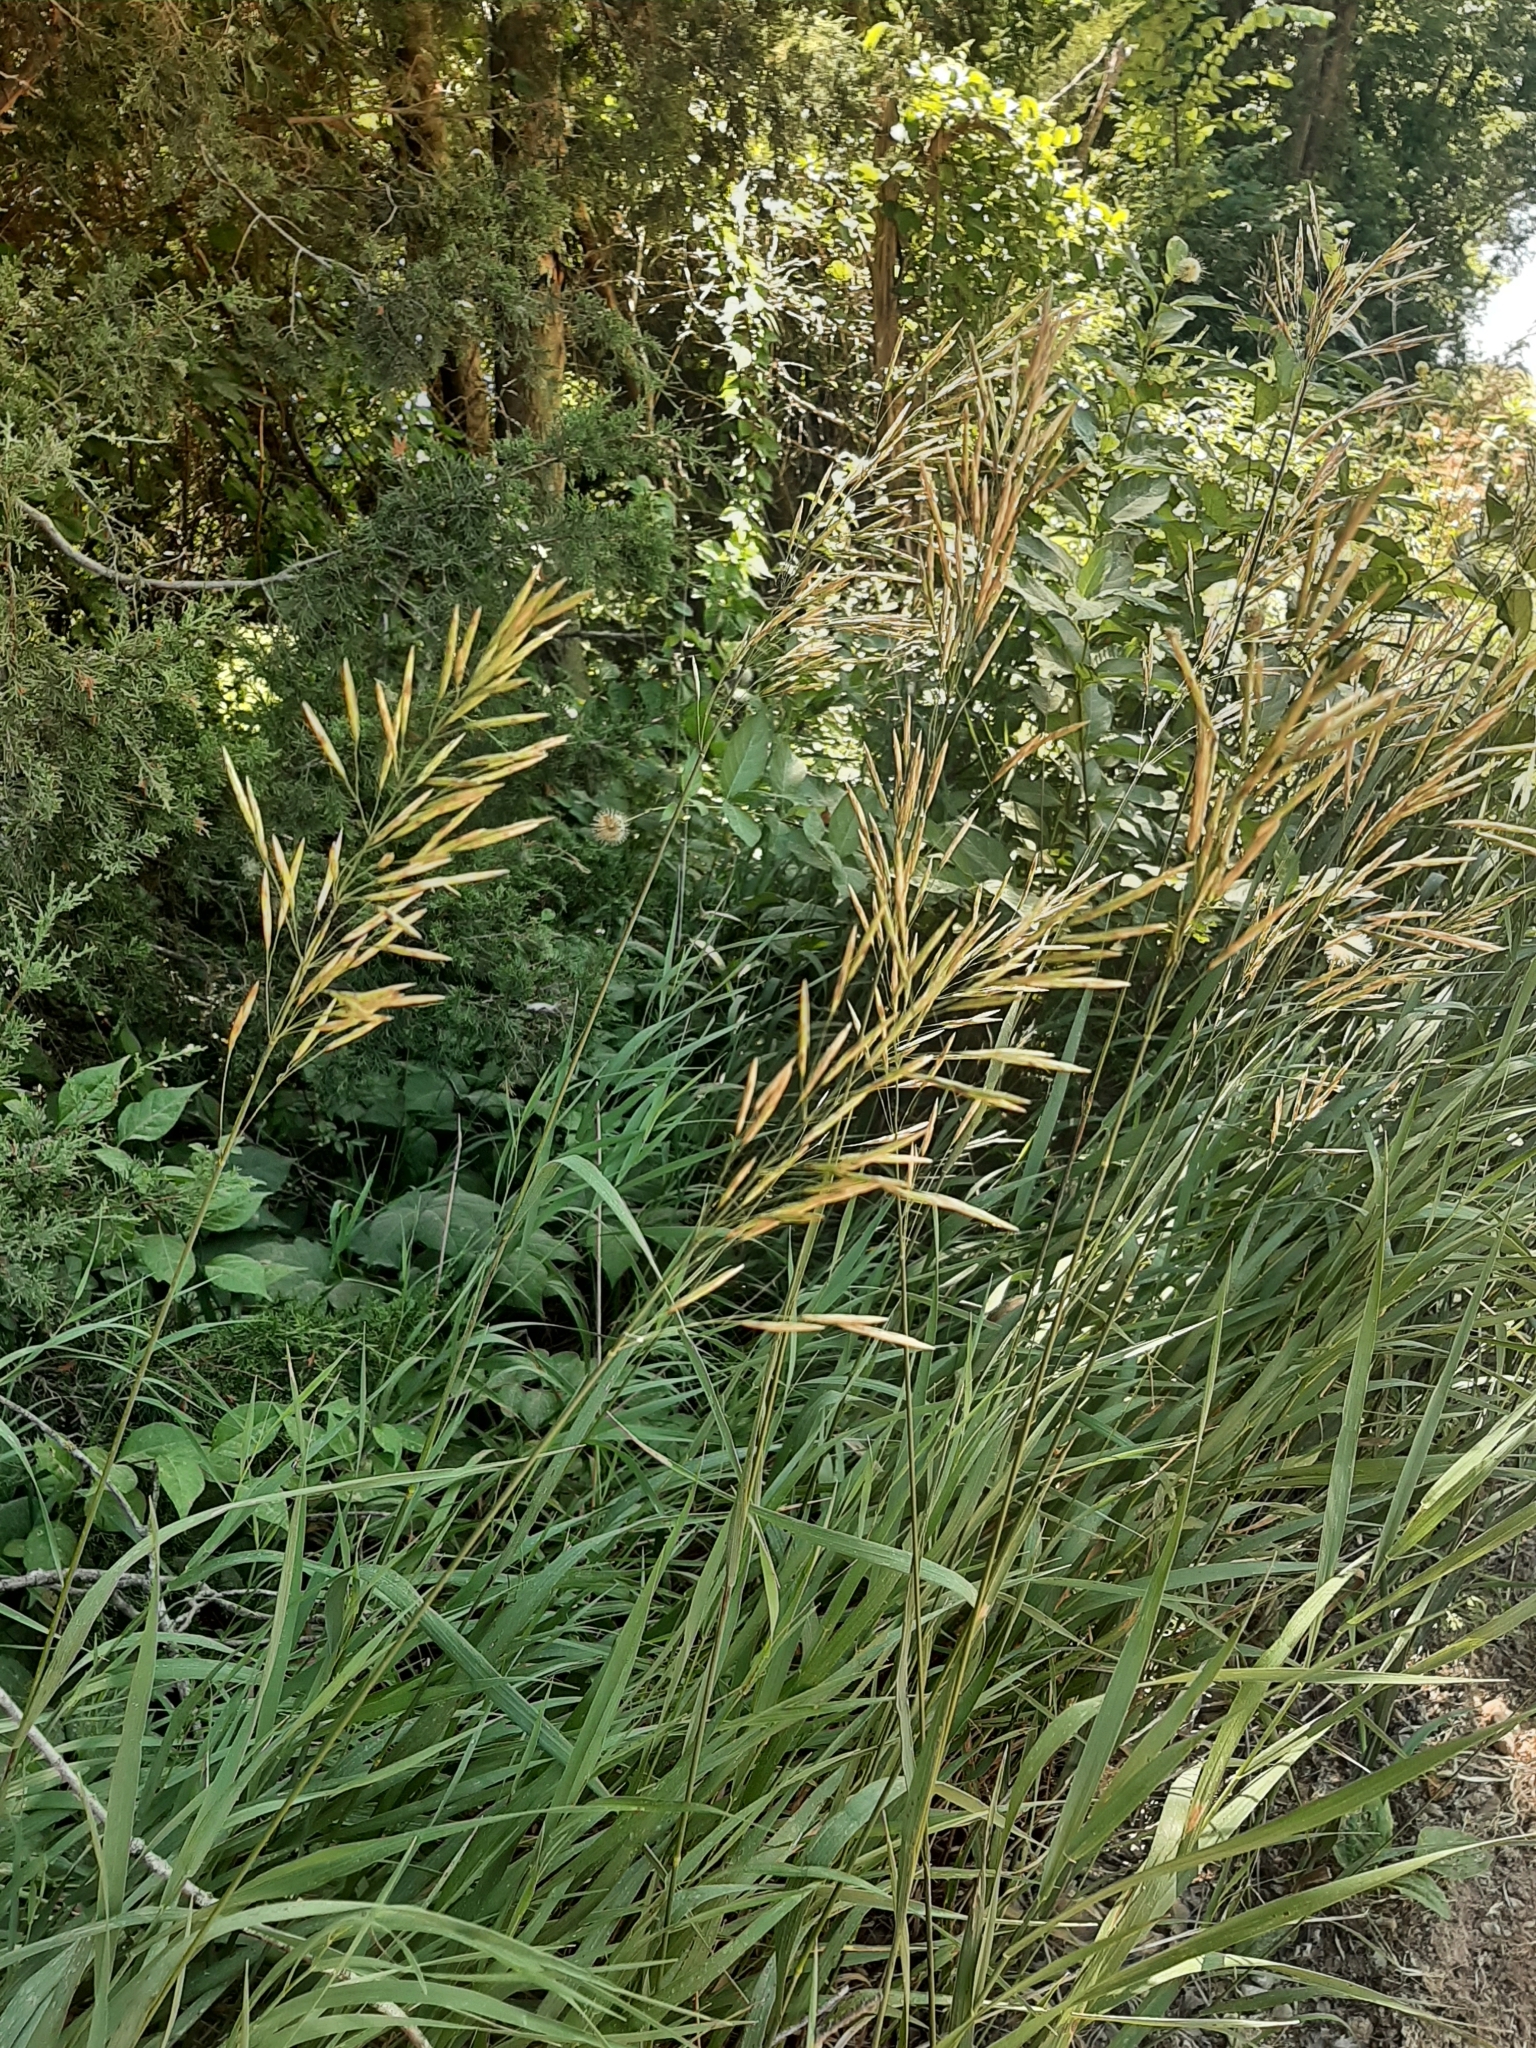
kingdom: Plantae
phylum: Tracheophyta
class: Liliopsida
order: Poales
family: Poaceae
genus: Bromus
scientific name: Bromus inermis
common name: Smooth brome
